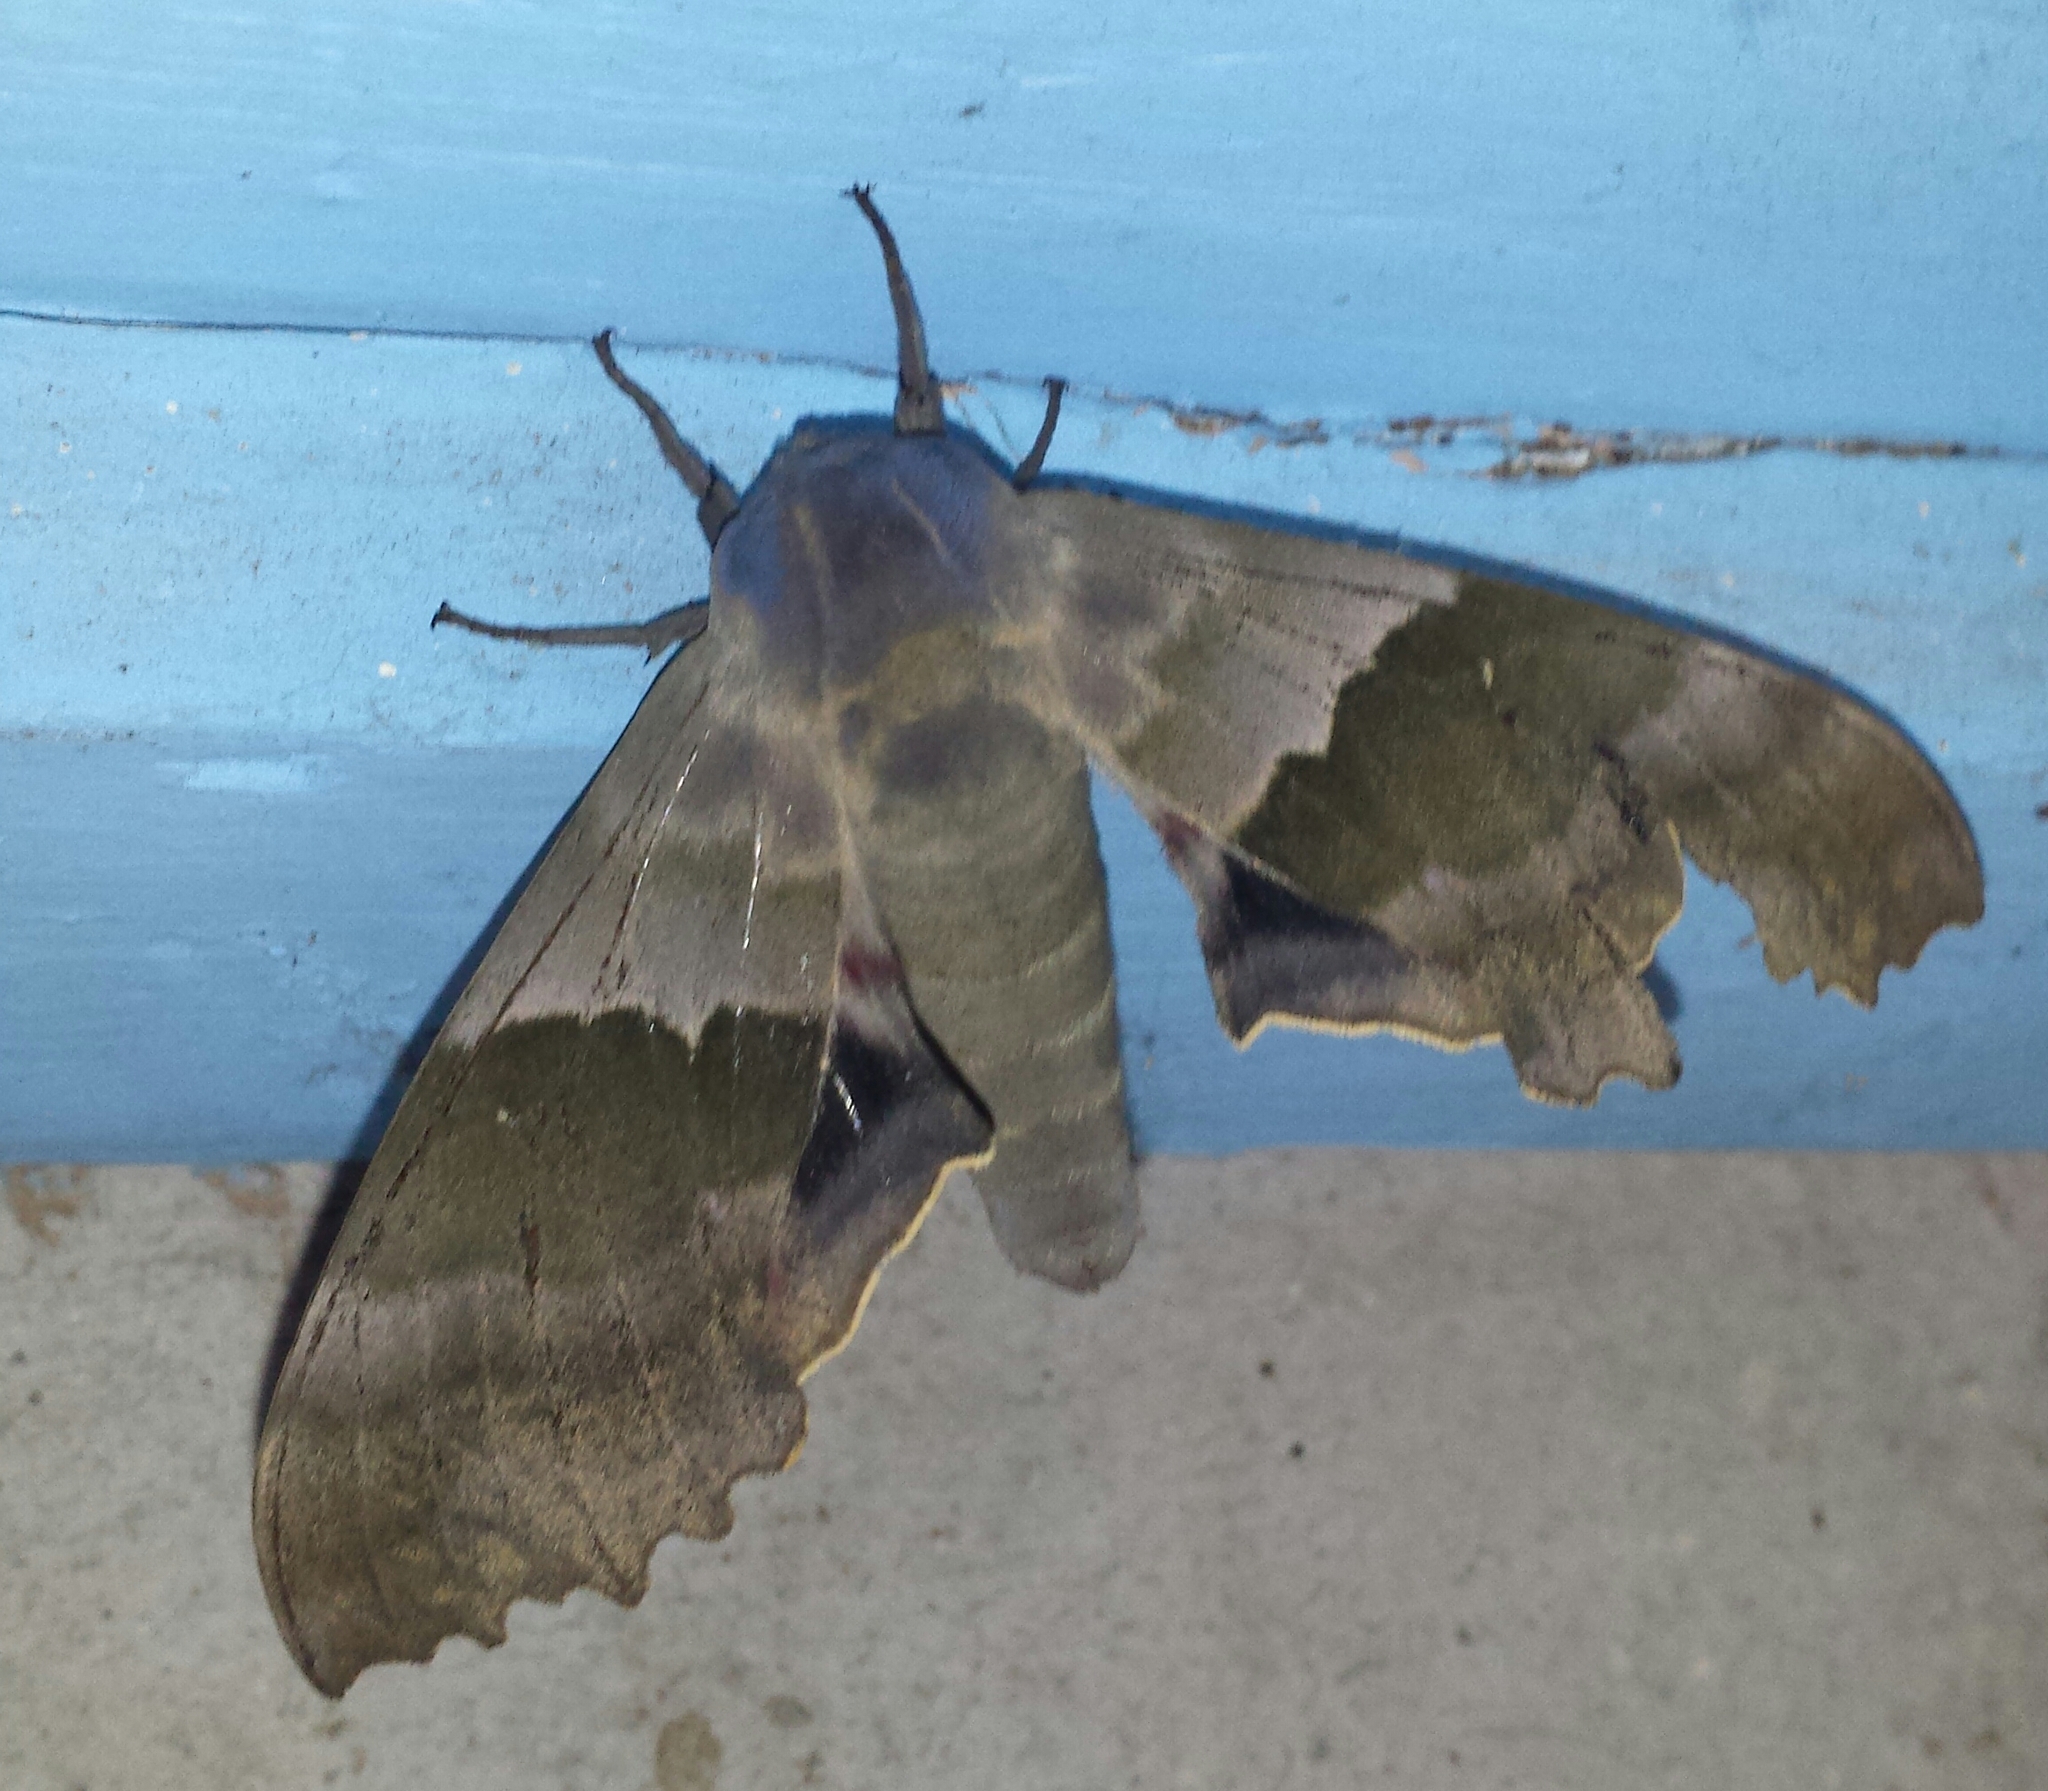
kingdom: Animalia
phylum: Arthropoda
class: Insecta
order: Lepidoptera
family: Sphingidae
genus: Pachysphinx
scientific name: Pachysphinx modesta
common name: Big poplar sphinx
